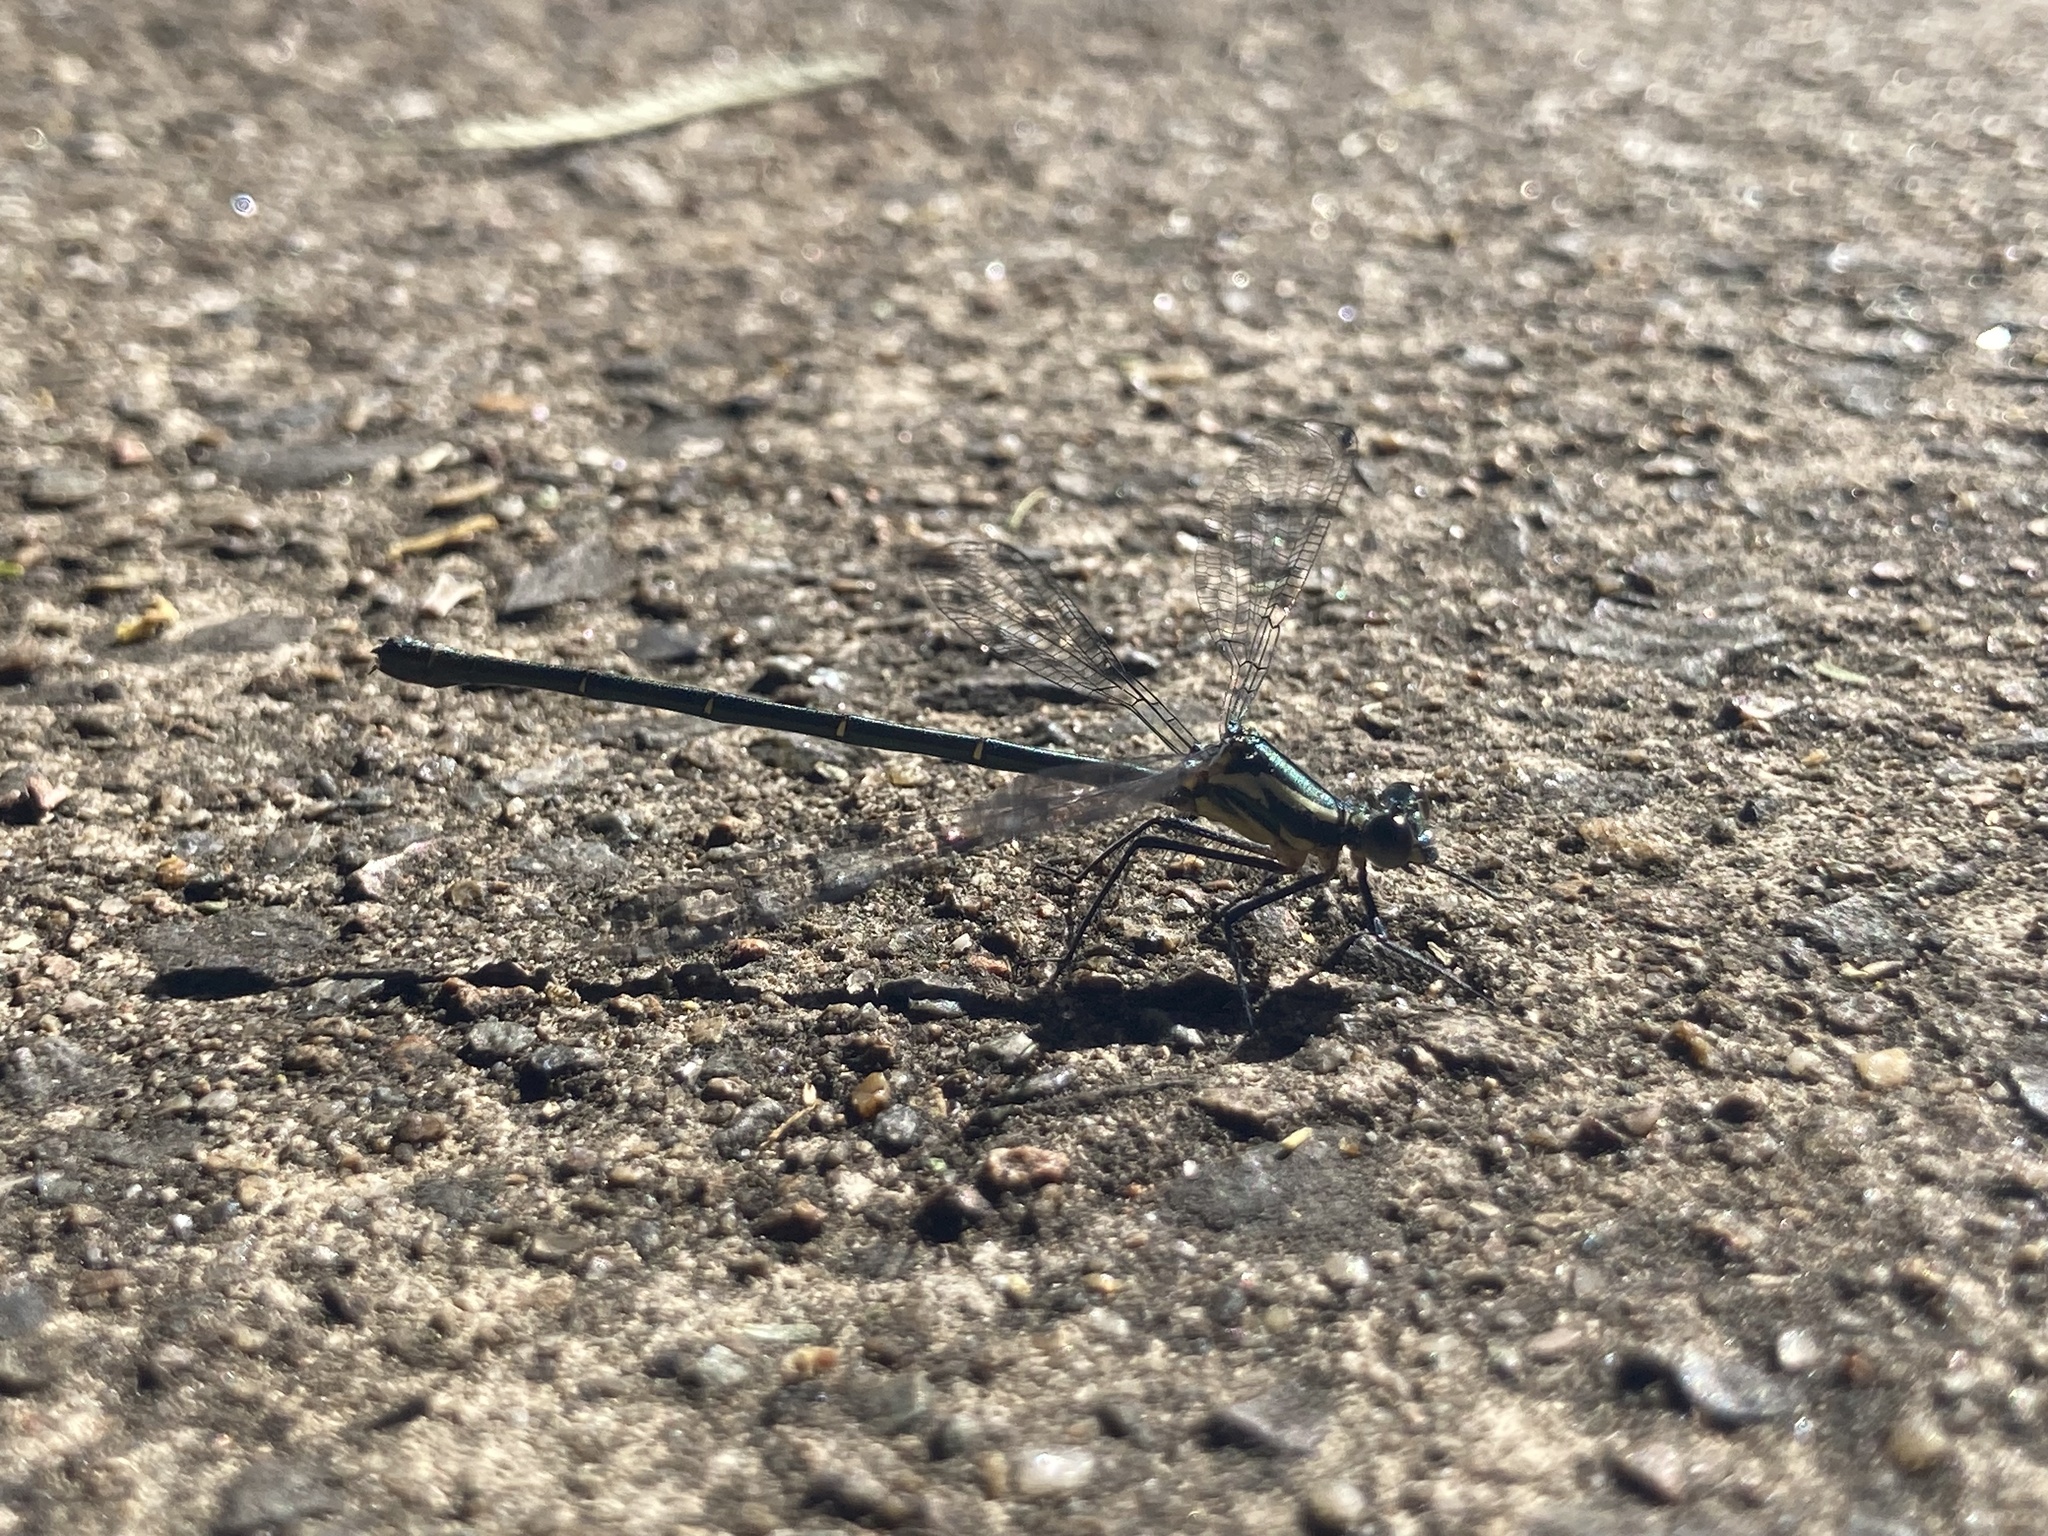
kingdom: Animalia
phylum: Arthropoda
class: Insecta
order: Odonata
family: Argiolestidae
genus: Austroargiolestes
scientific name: Austroargiolestes icteromelas
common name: Common flatwing
